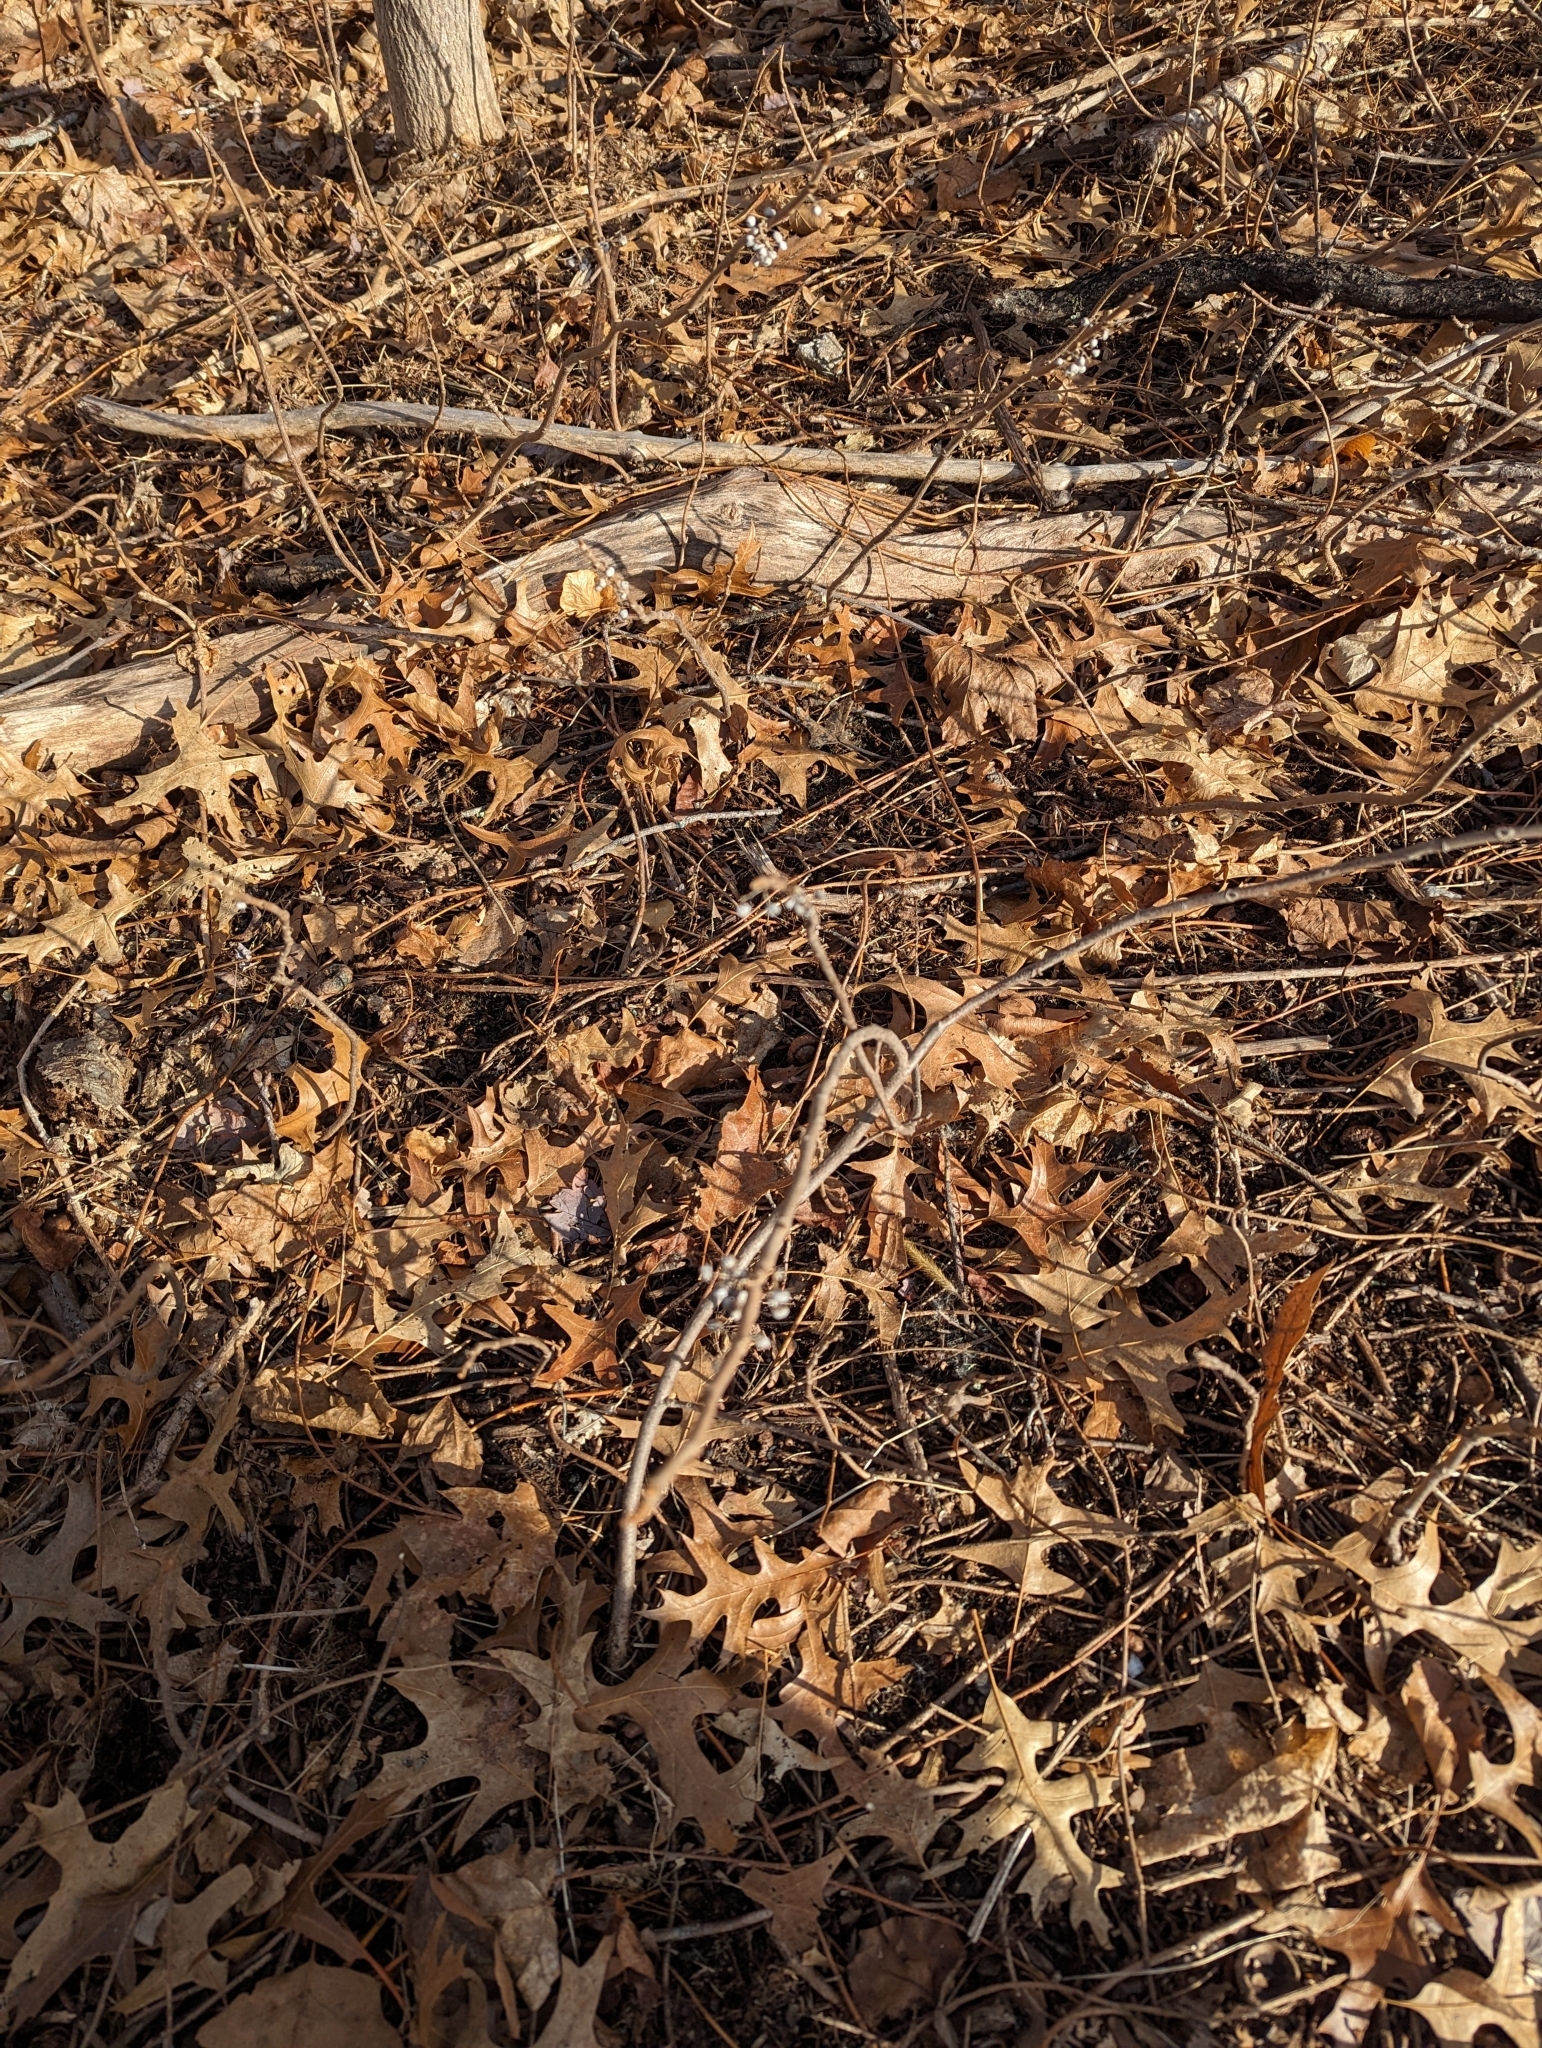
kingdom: Plantae
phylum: Tracheophyta
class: Magnoliopsida
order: Sapindales
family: Anacardiaceae
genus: Toxicodendron
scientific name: Toxicodendron radicans
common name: Poison ivy
